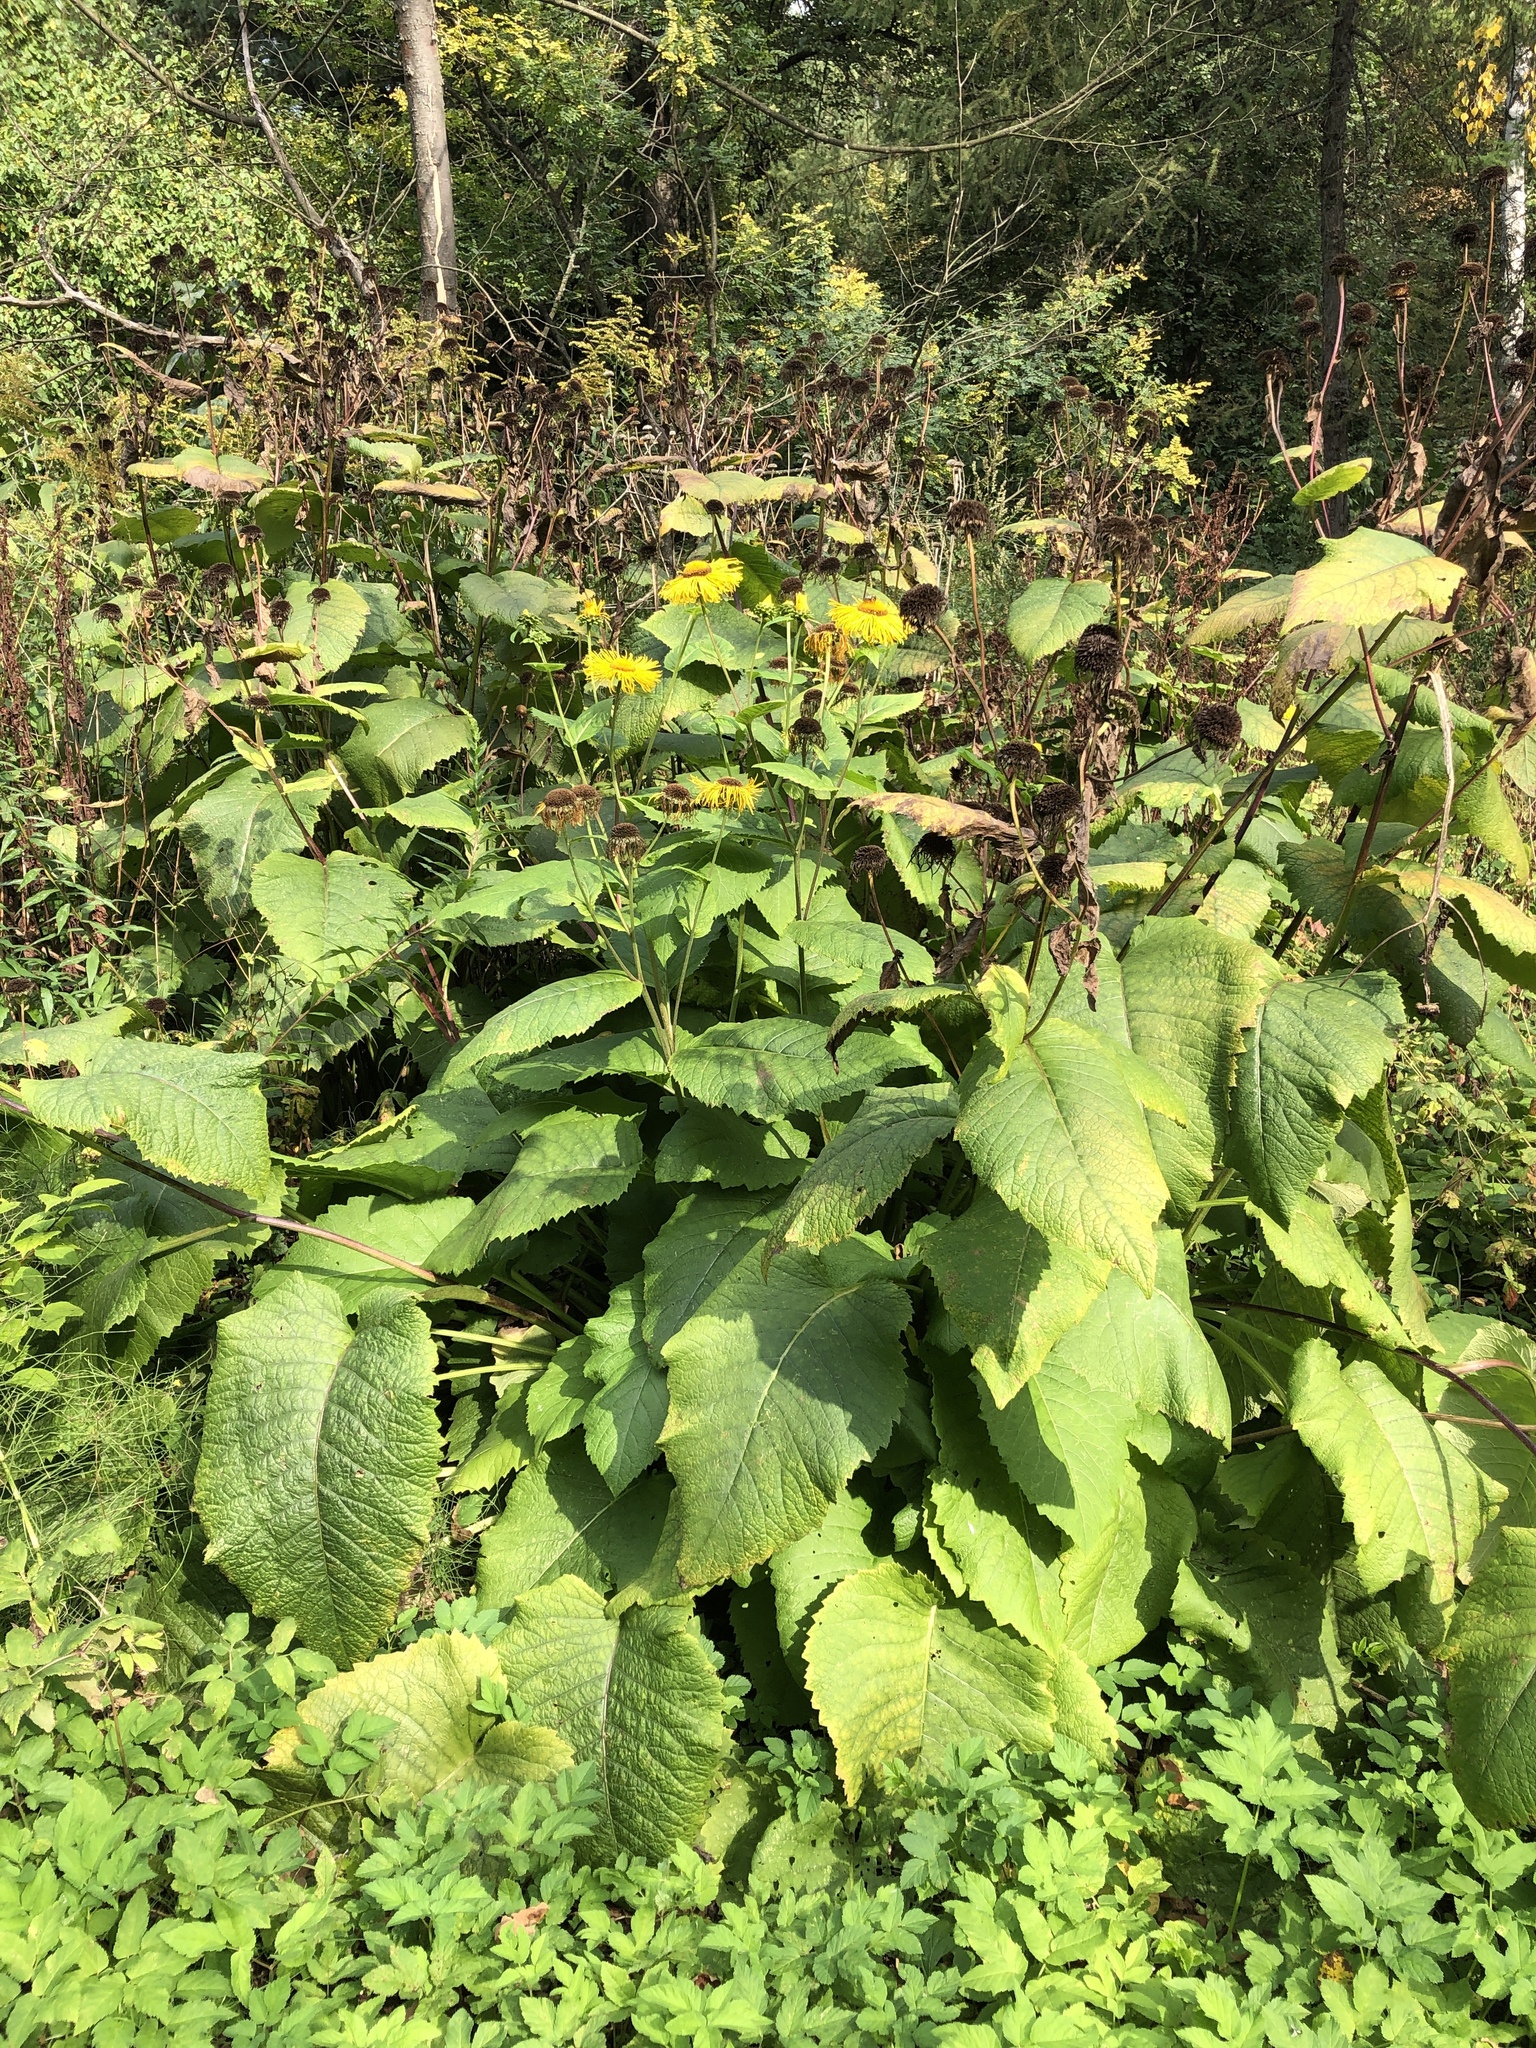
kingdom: Plantae
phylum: Tracheophyta
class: Magnoliopsida
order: Asterales
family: Asteraceae
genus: Telekia
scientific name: Telekia speciosa
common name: Yellow oxeye
